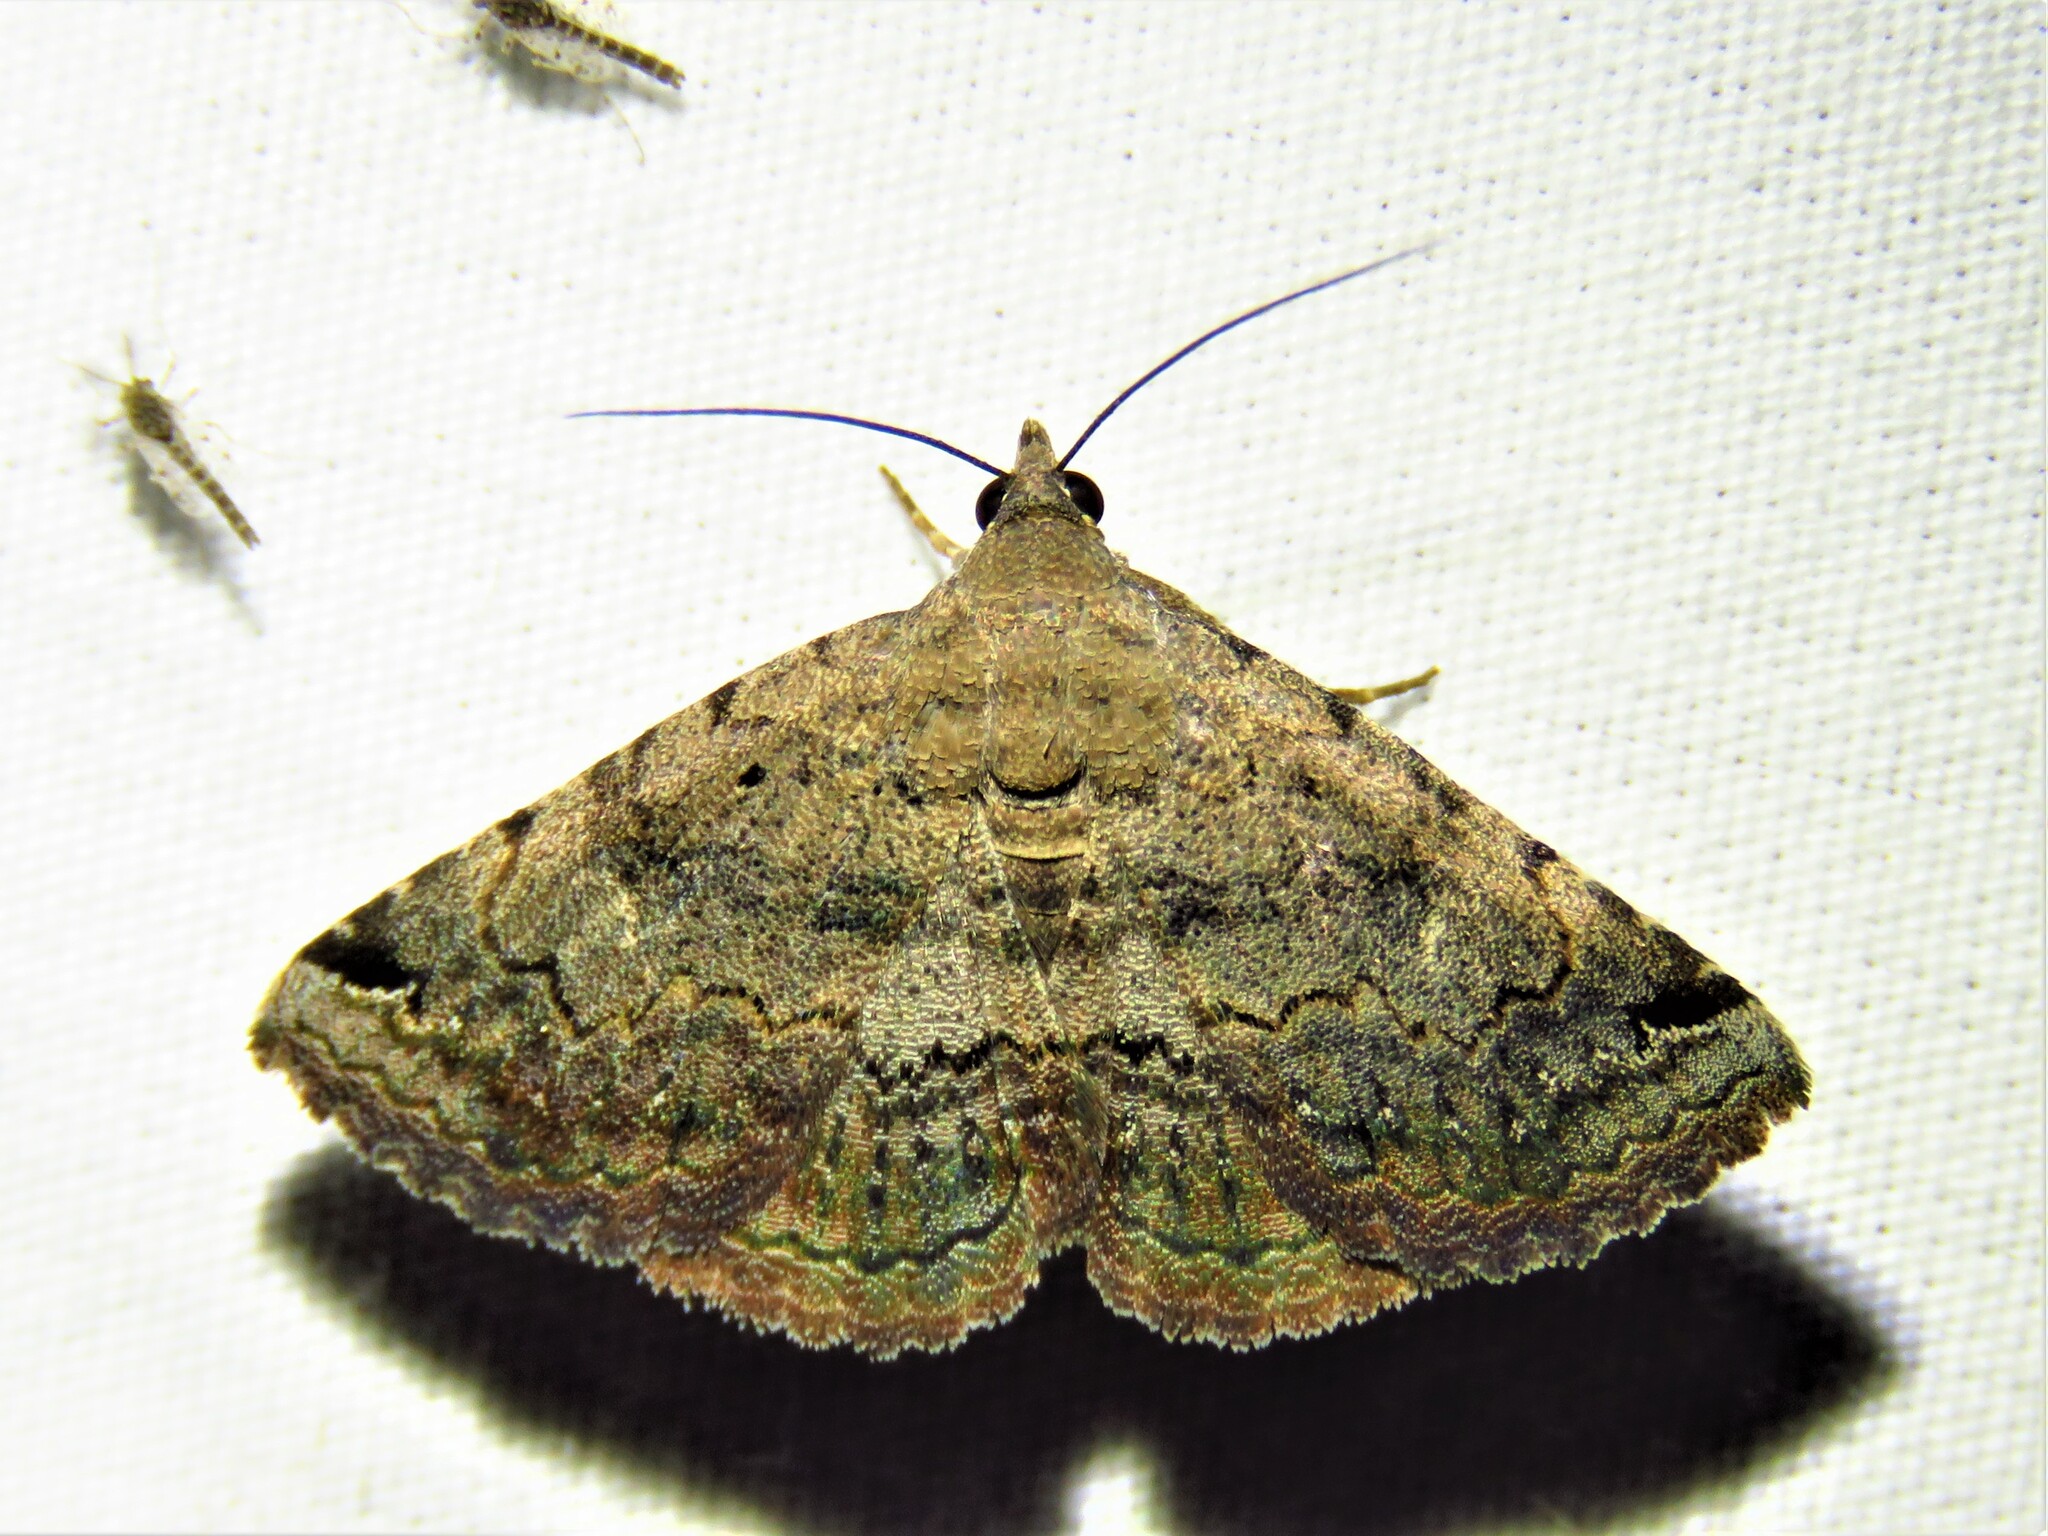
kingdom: Animalia
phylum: Arthropoda
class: Insecta
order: Lepidoptera
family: Erebidae
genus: Toxonprucha
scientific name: Toxonprucha crudelis
